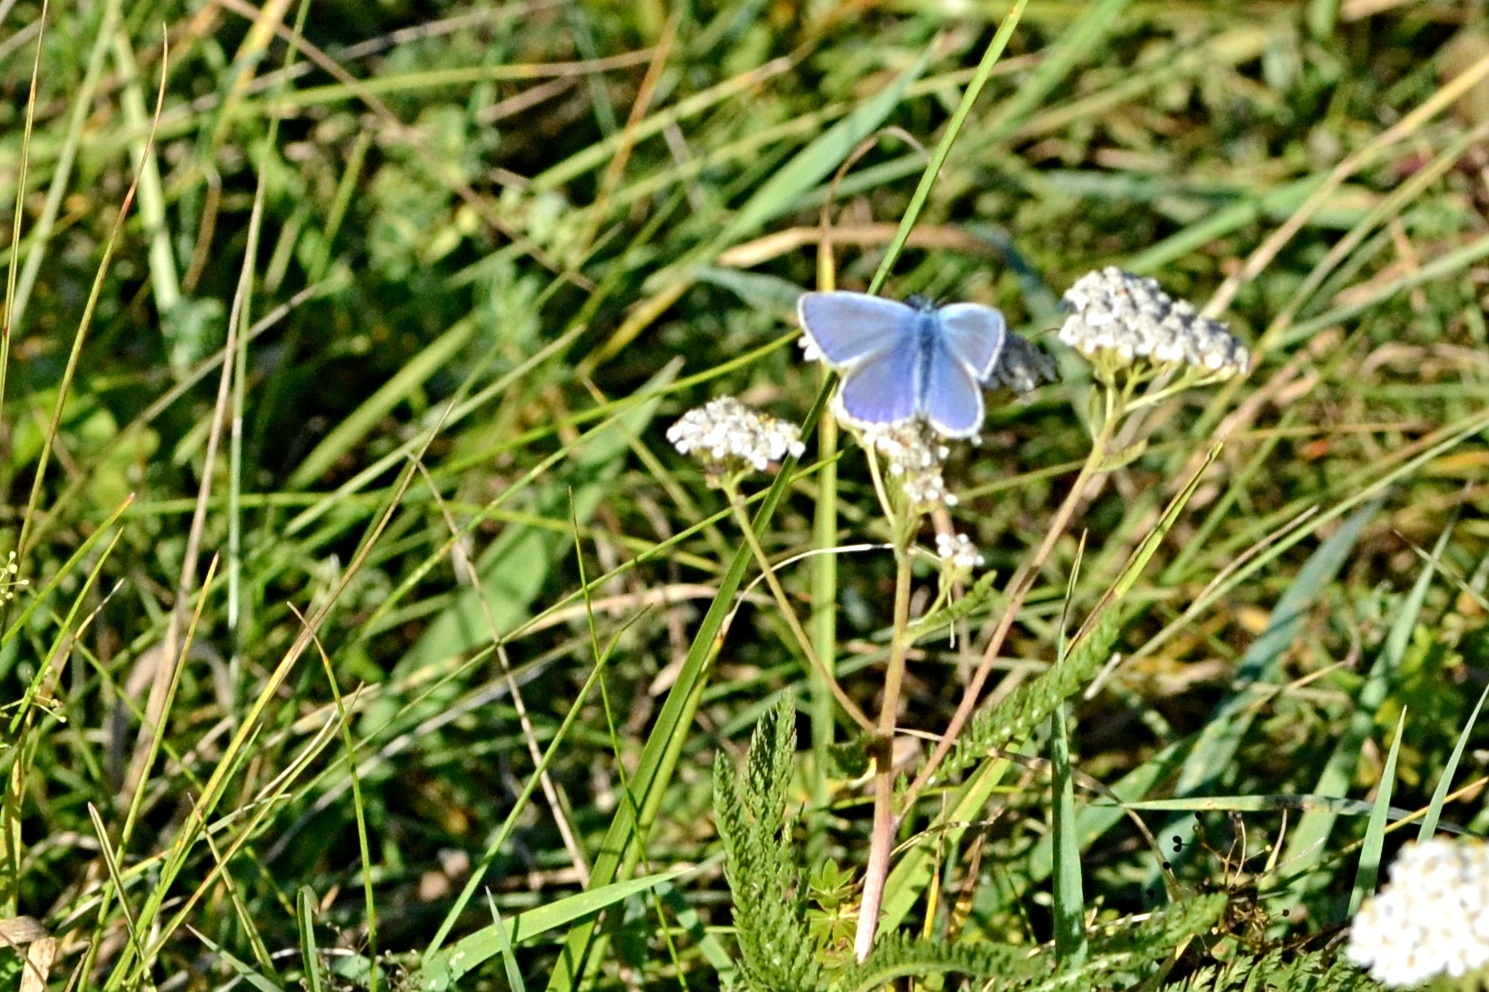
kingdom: Animalia
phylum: Arthropoda
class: Insecta
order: Lepidoptera
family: Lycaenidae
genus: Polyommatus
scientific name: Polyommatus icarus
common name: Common blue
